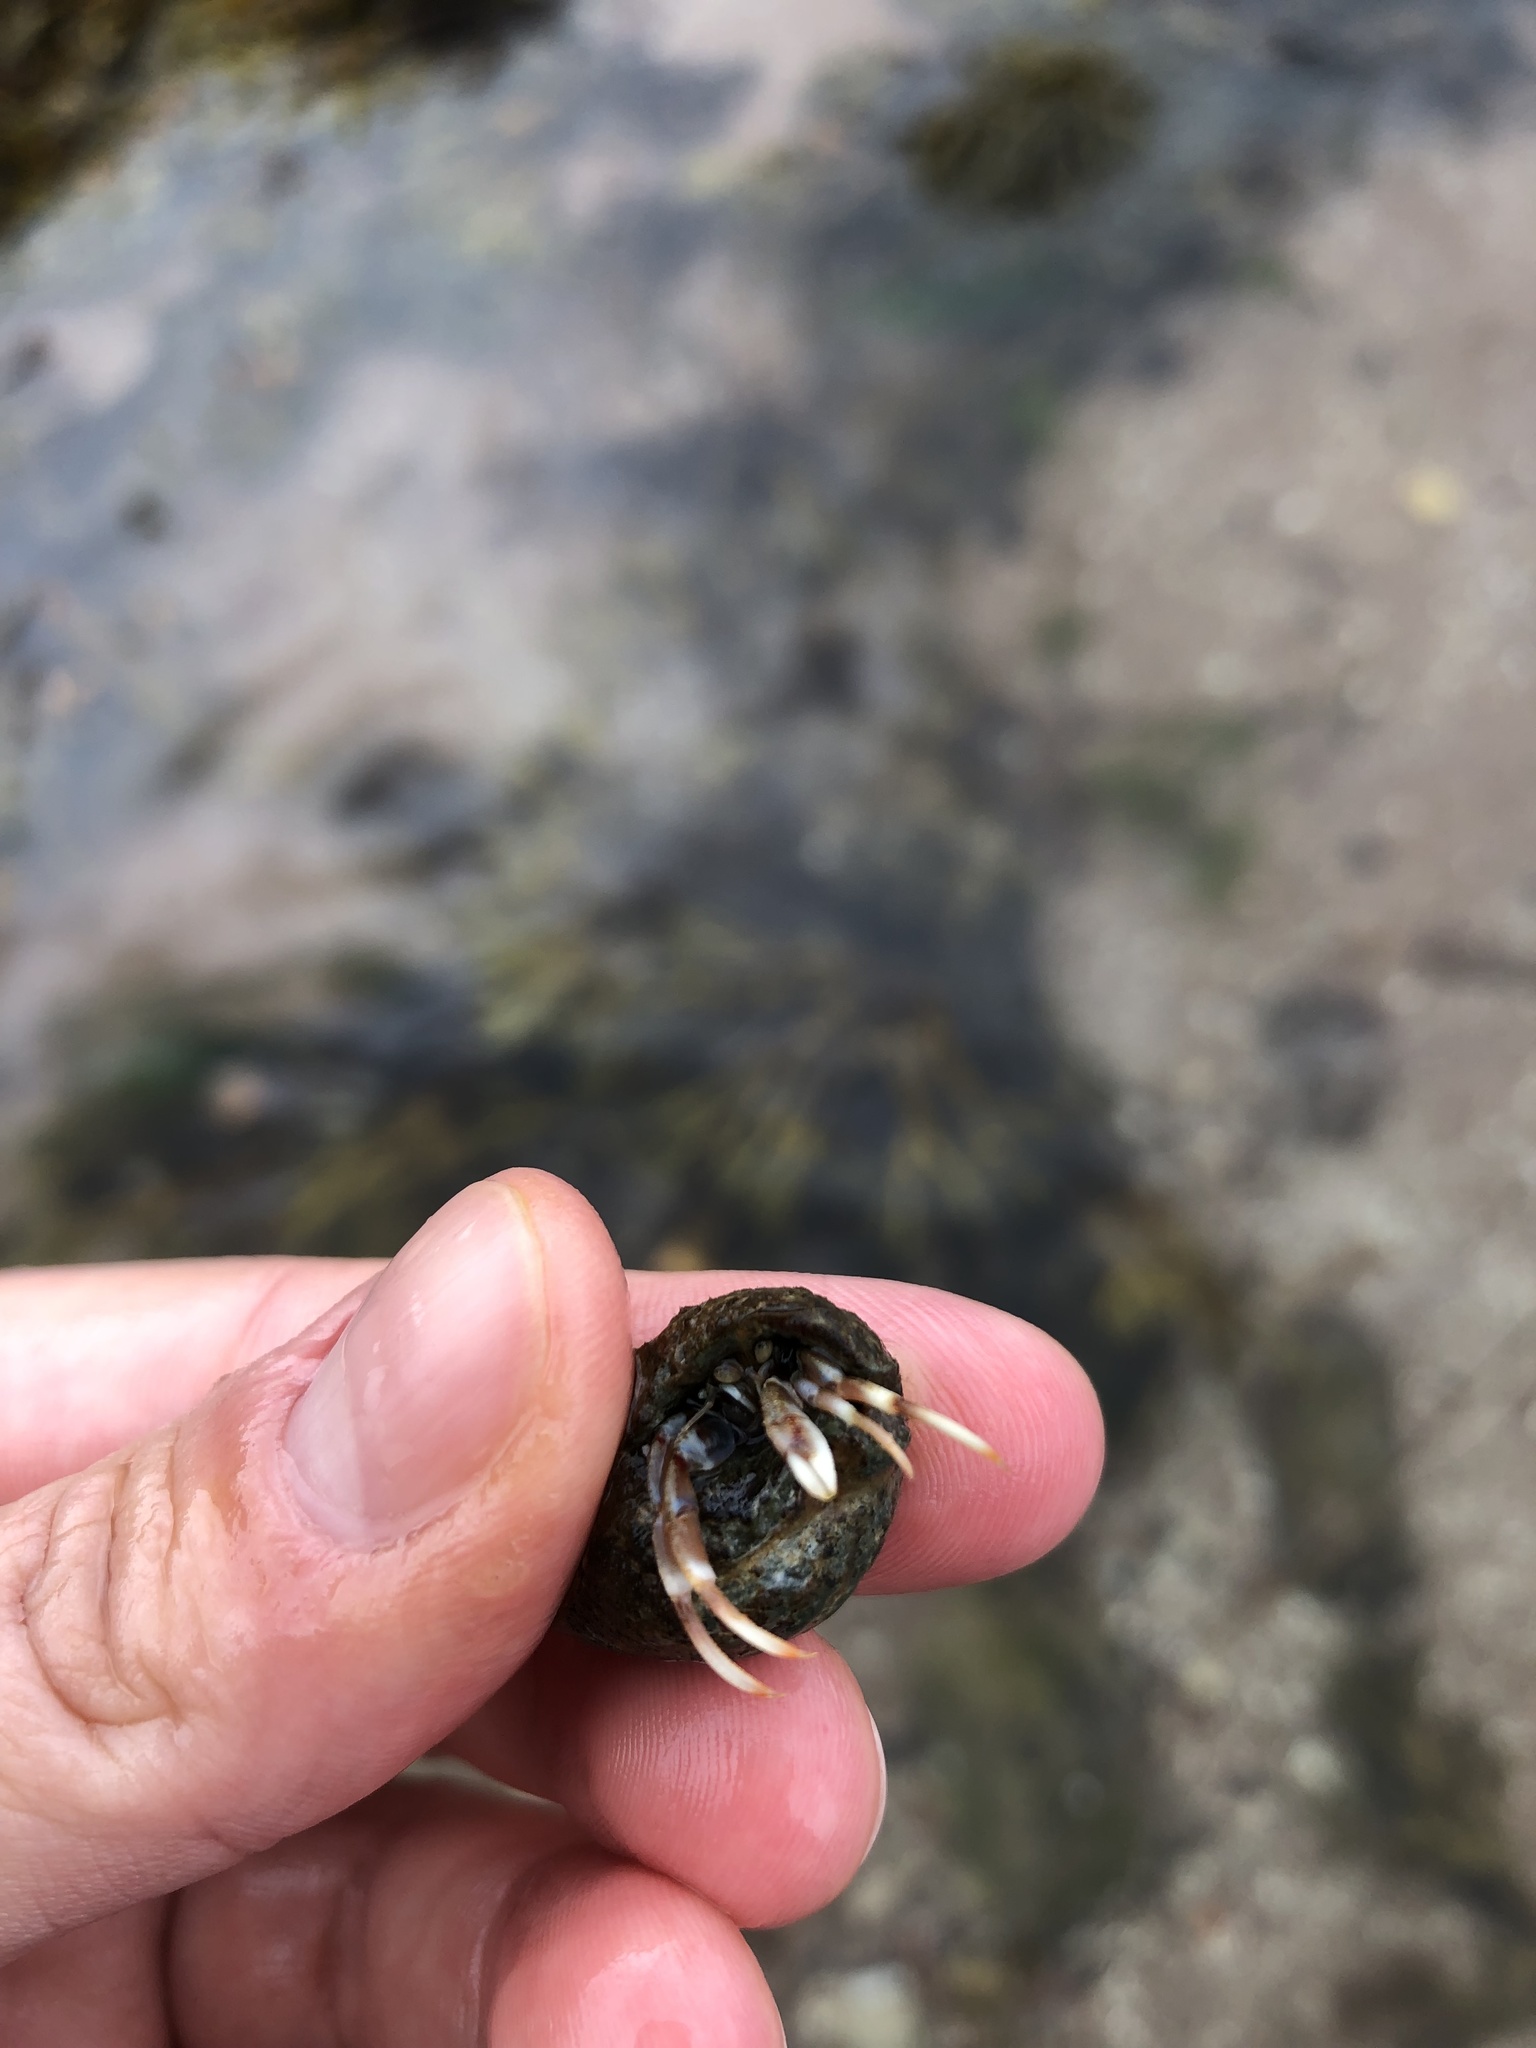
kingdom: Animalia
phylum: Arthropoda
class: Malacostraca
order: Decapoda
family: Paguridae
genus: Pagurus
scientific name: Pagurus bernhardus
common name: Hermit crab
